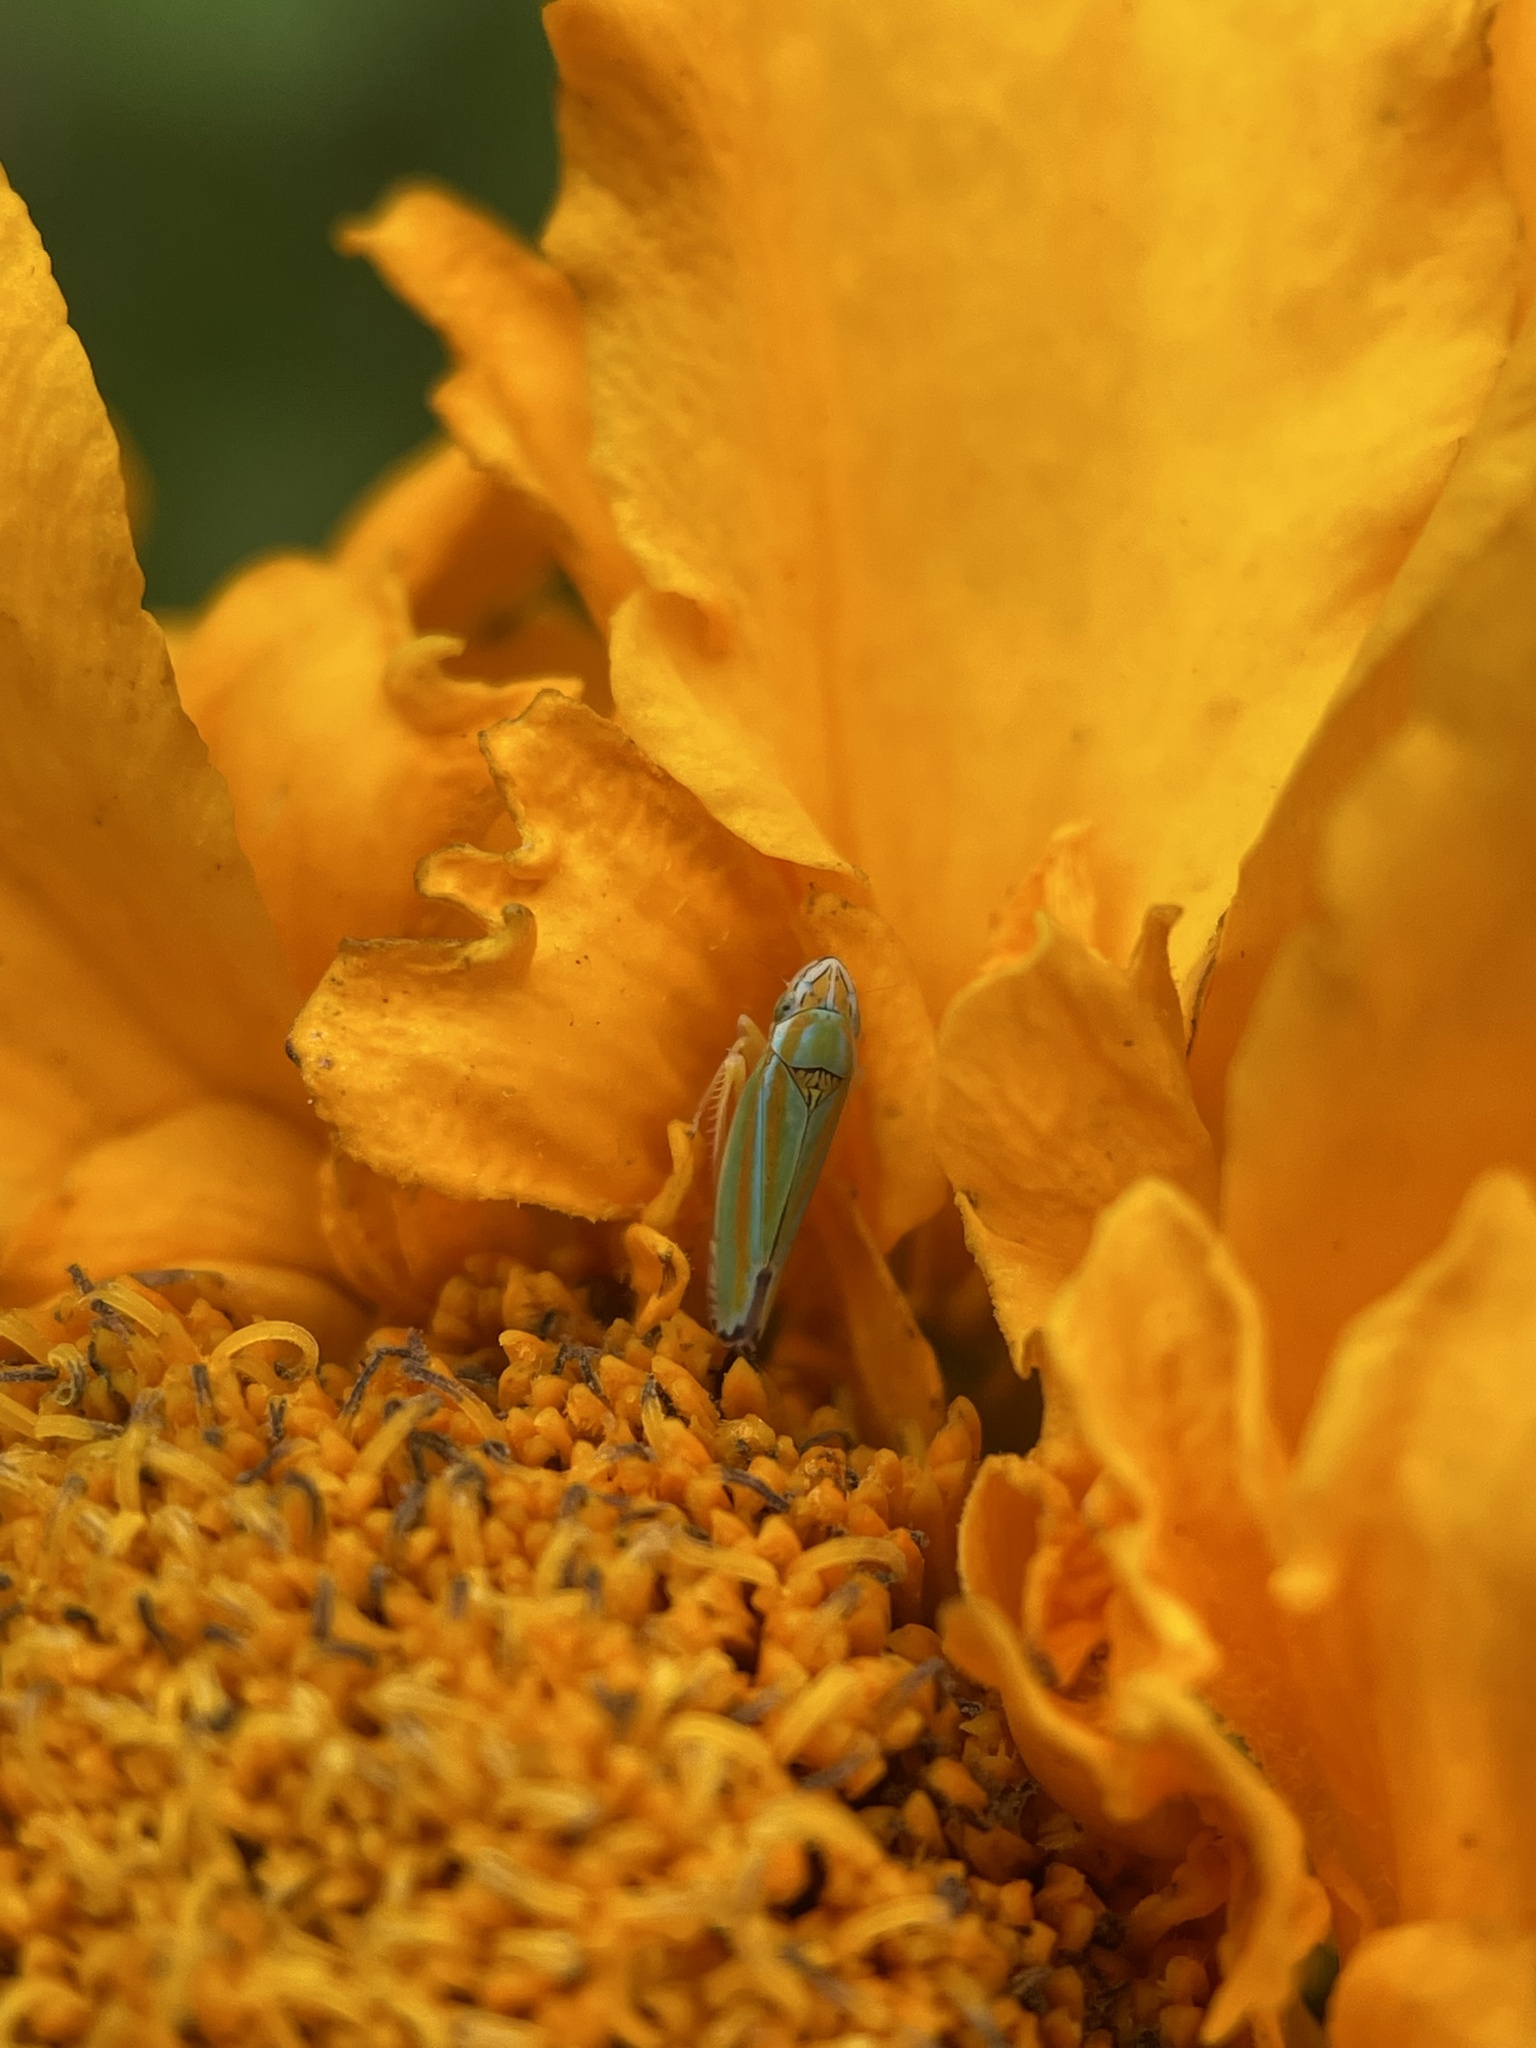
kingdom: Animalia
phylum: Arthropoda
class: Insecta
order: Hemiptera
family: Cicadellidae
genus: Graphocephala
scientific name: Graphocephala versuta
